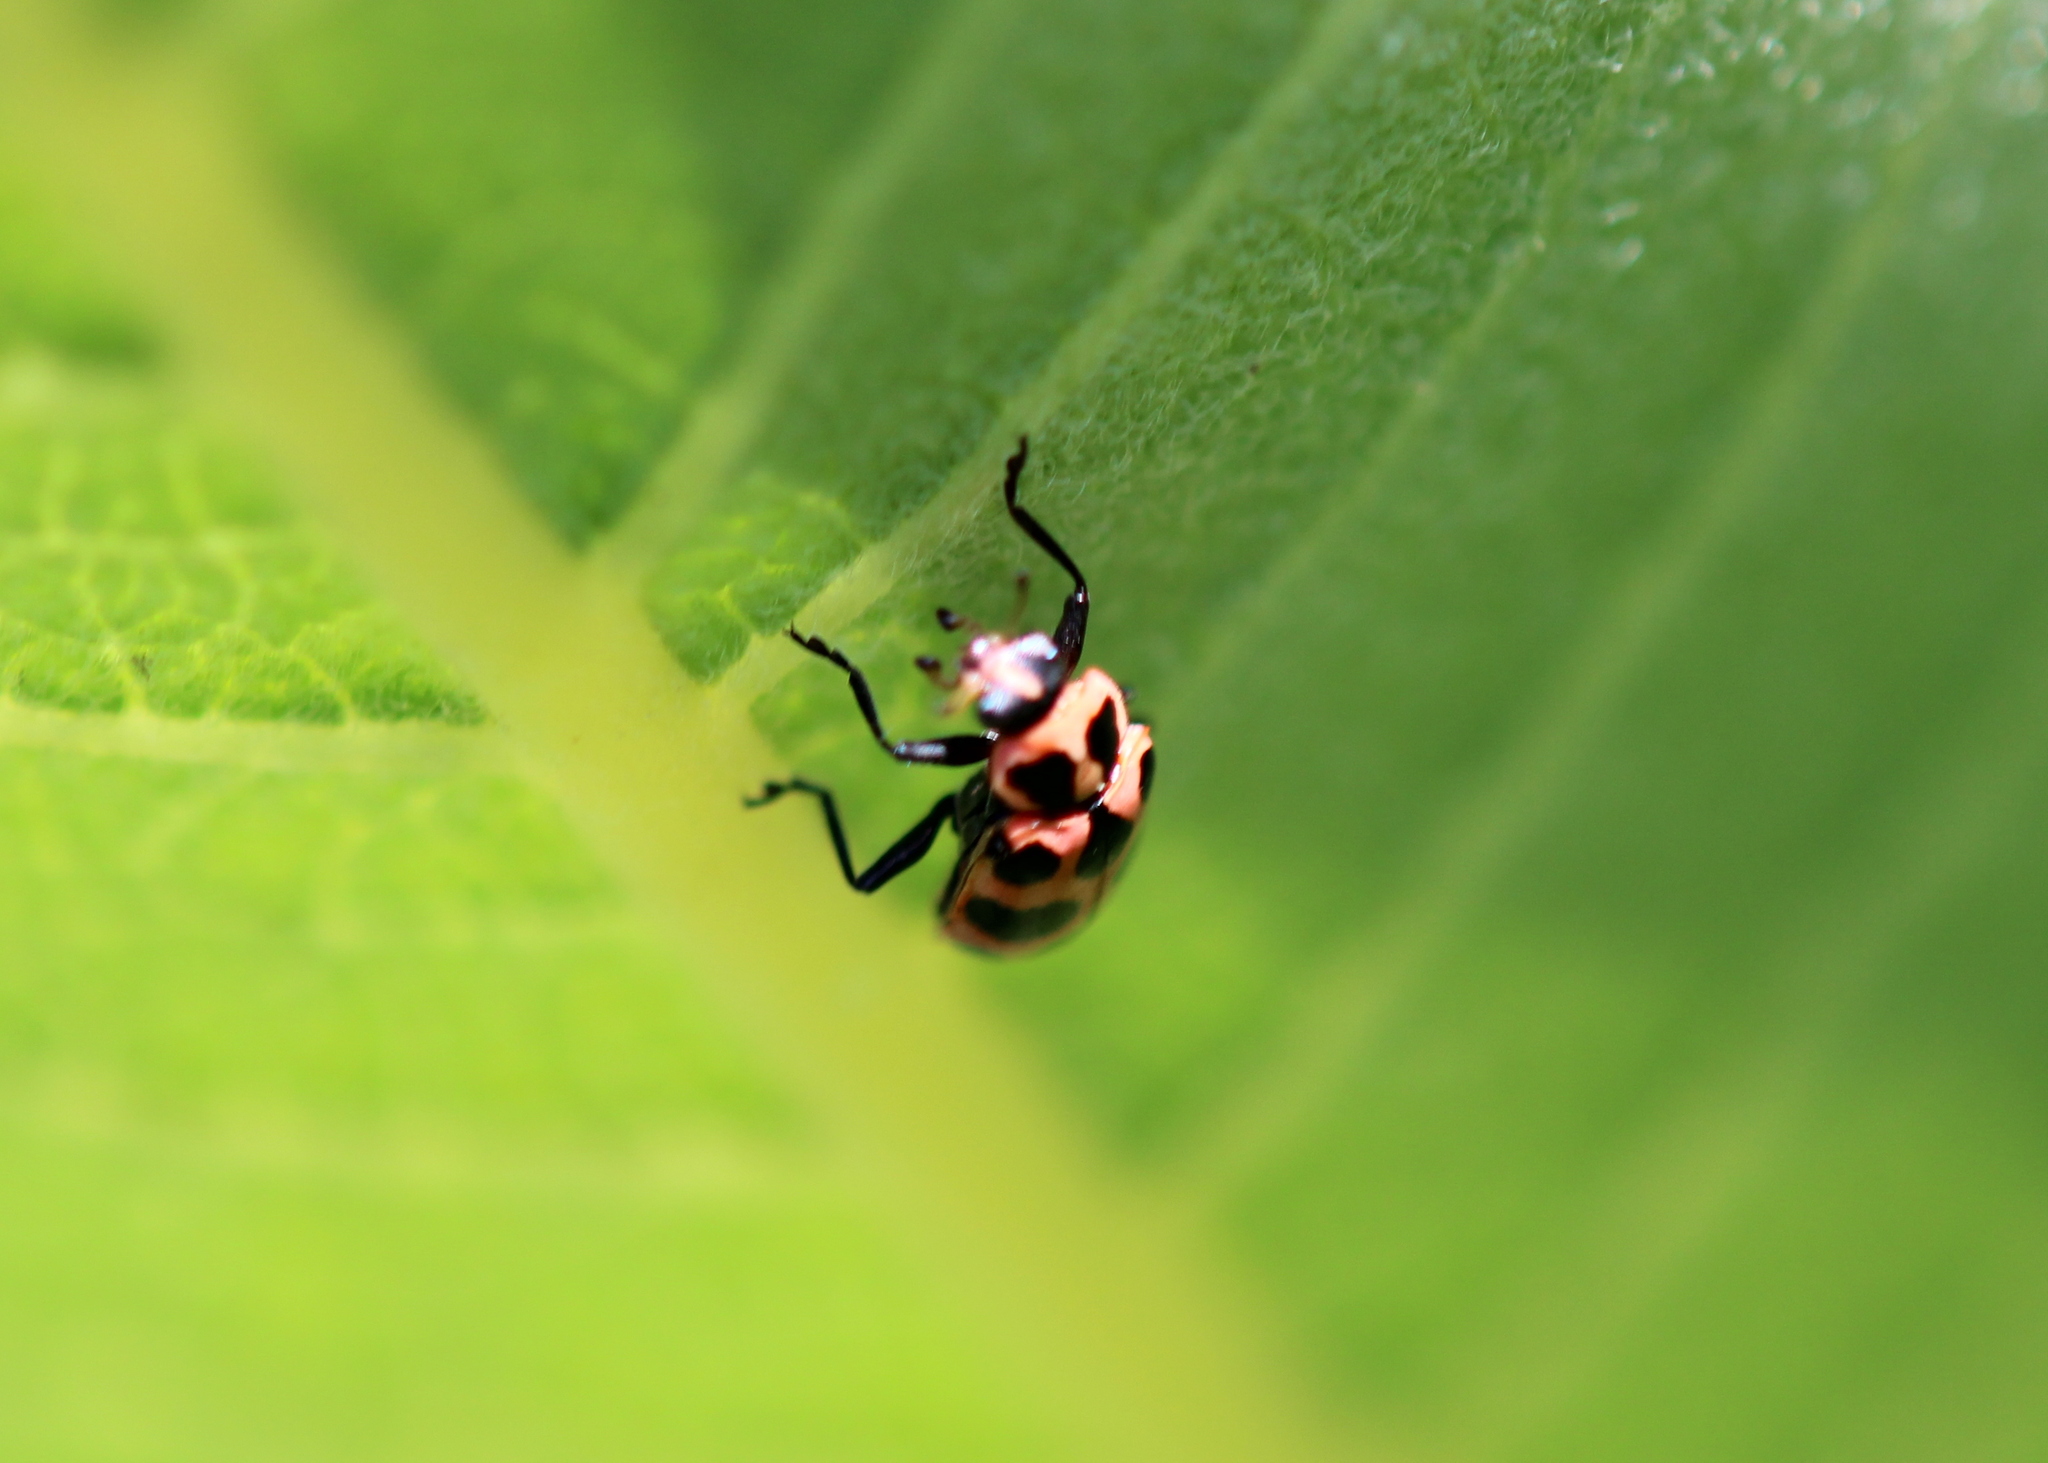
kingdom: Animalia
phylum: Arthropoda
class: Insecta
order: Coleoptera
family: Coccinellidae
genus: Coleomegilla
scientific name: Coleomegilla maculata
